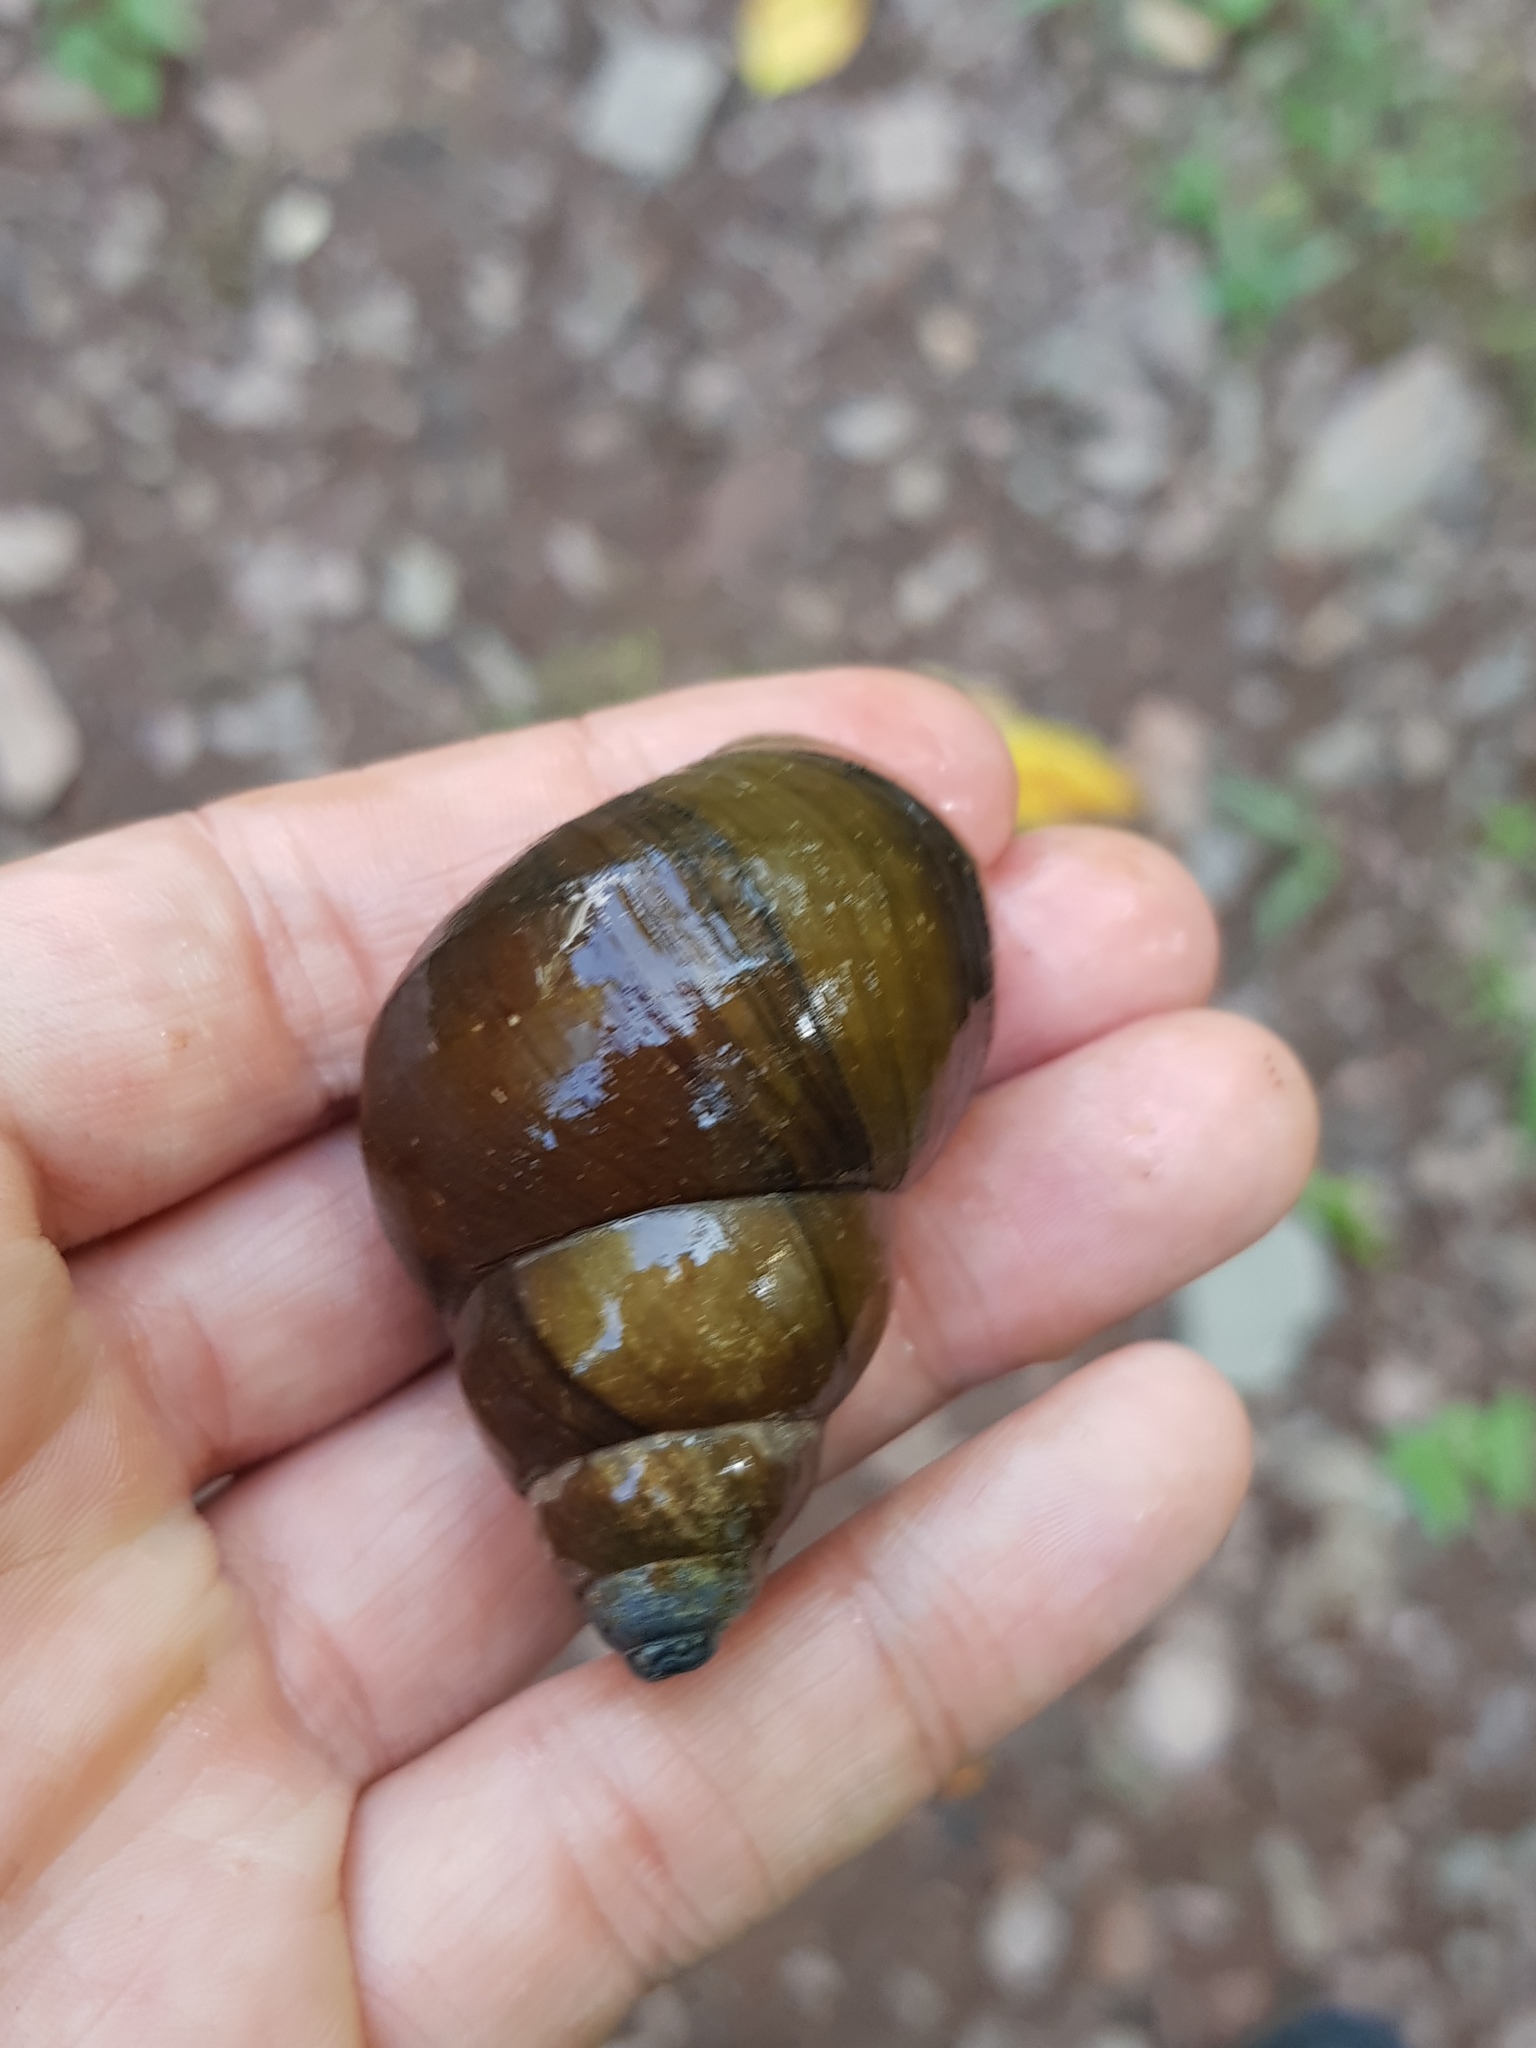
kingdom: Animalia
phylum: Mollusca
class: Gastropoda
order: Architaenioglossa
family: Viviparidae
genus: Cipangopaludina
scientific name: Cipangopaludina chinensis
